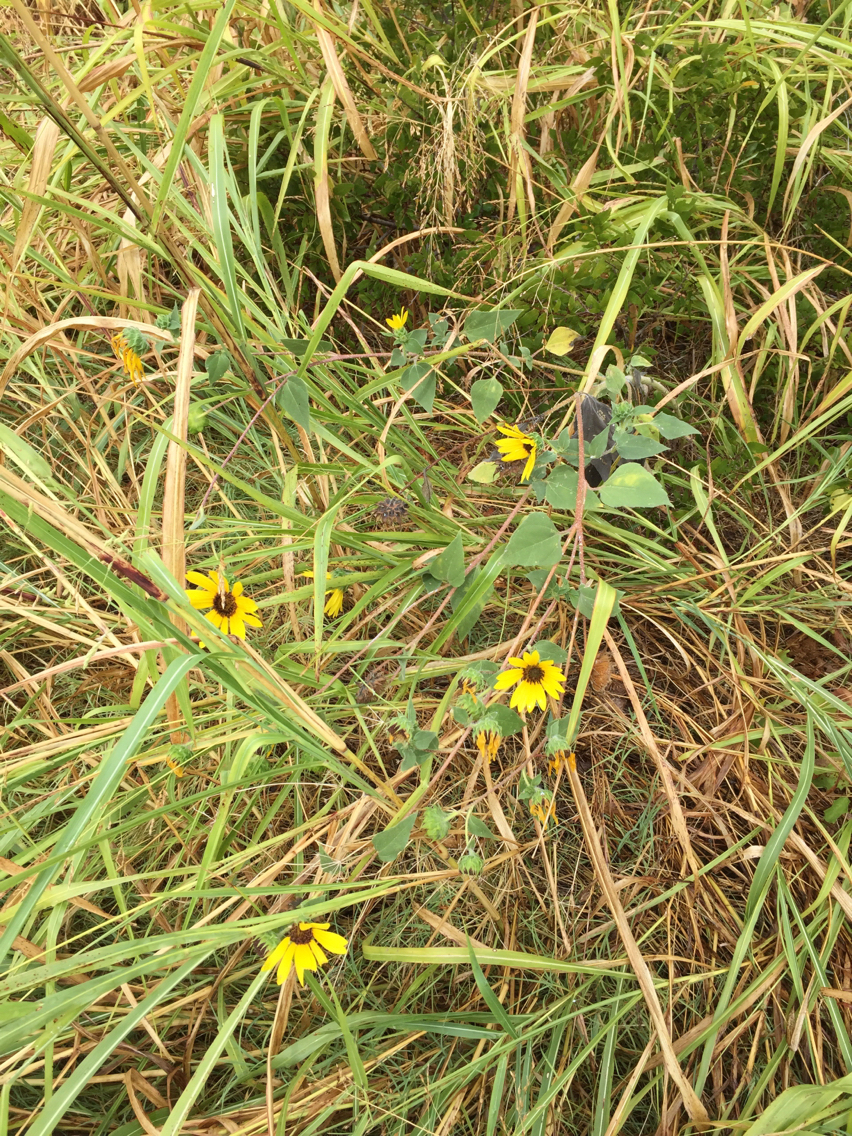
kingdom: Plantae
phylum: Tracheophyta
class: Magnoliopsida
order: Asterales
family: Asteraceae
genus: Helianthus
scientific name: Helianthus annuus
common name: Sunflower
